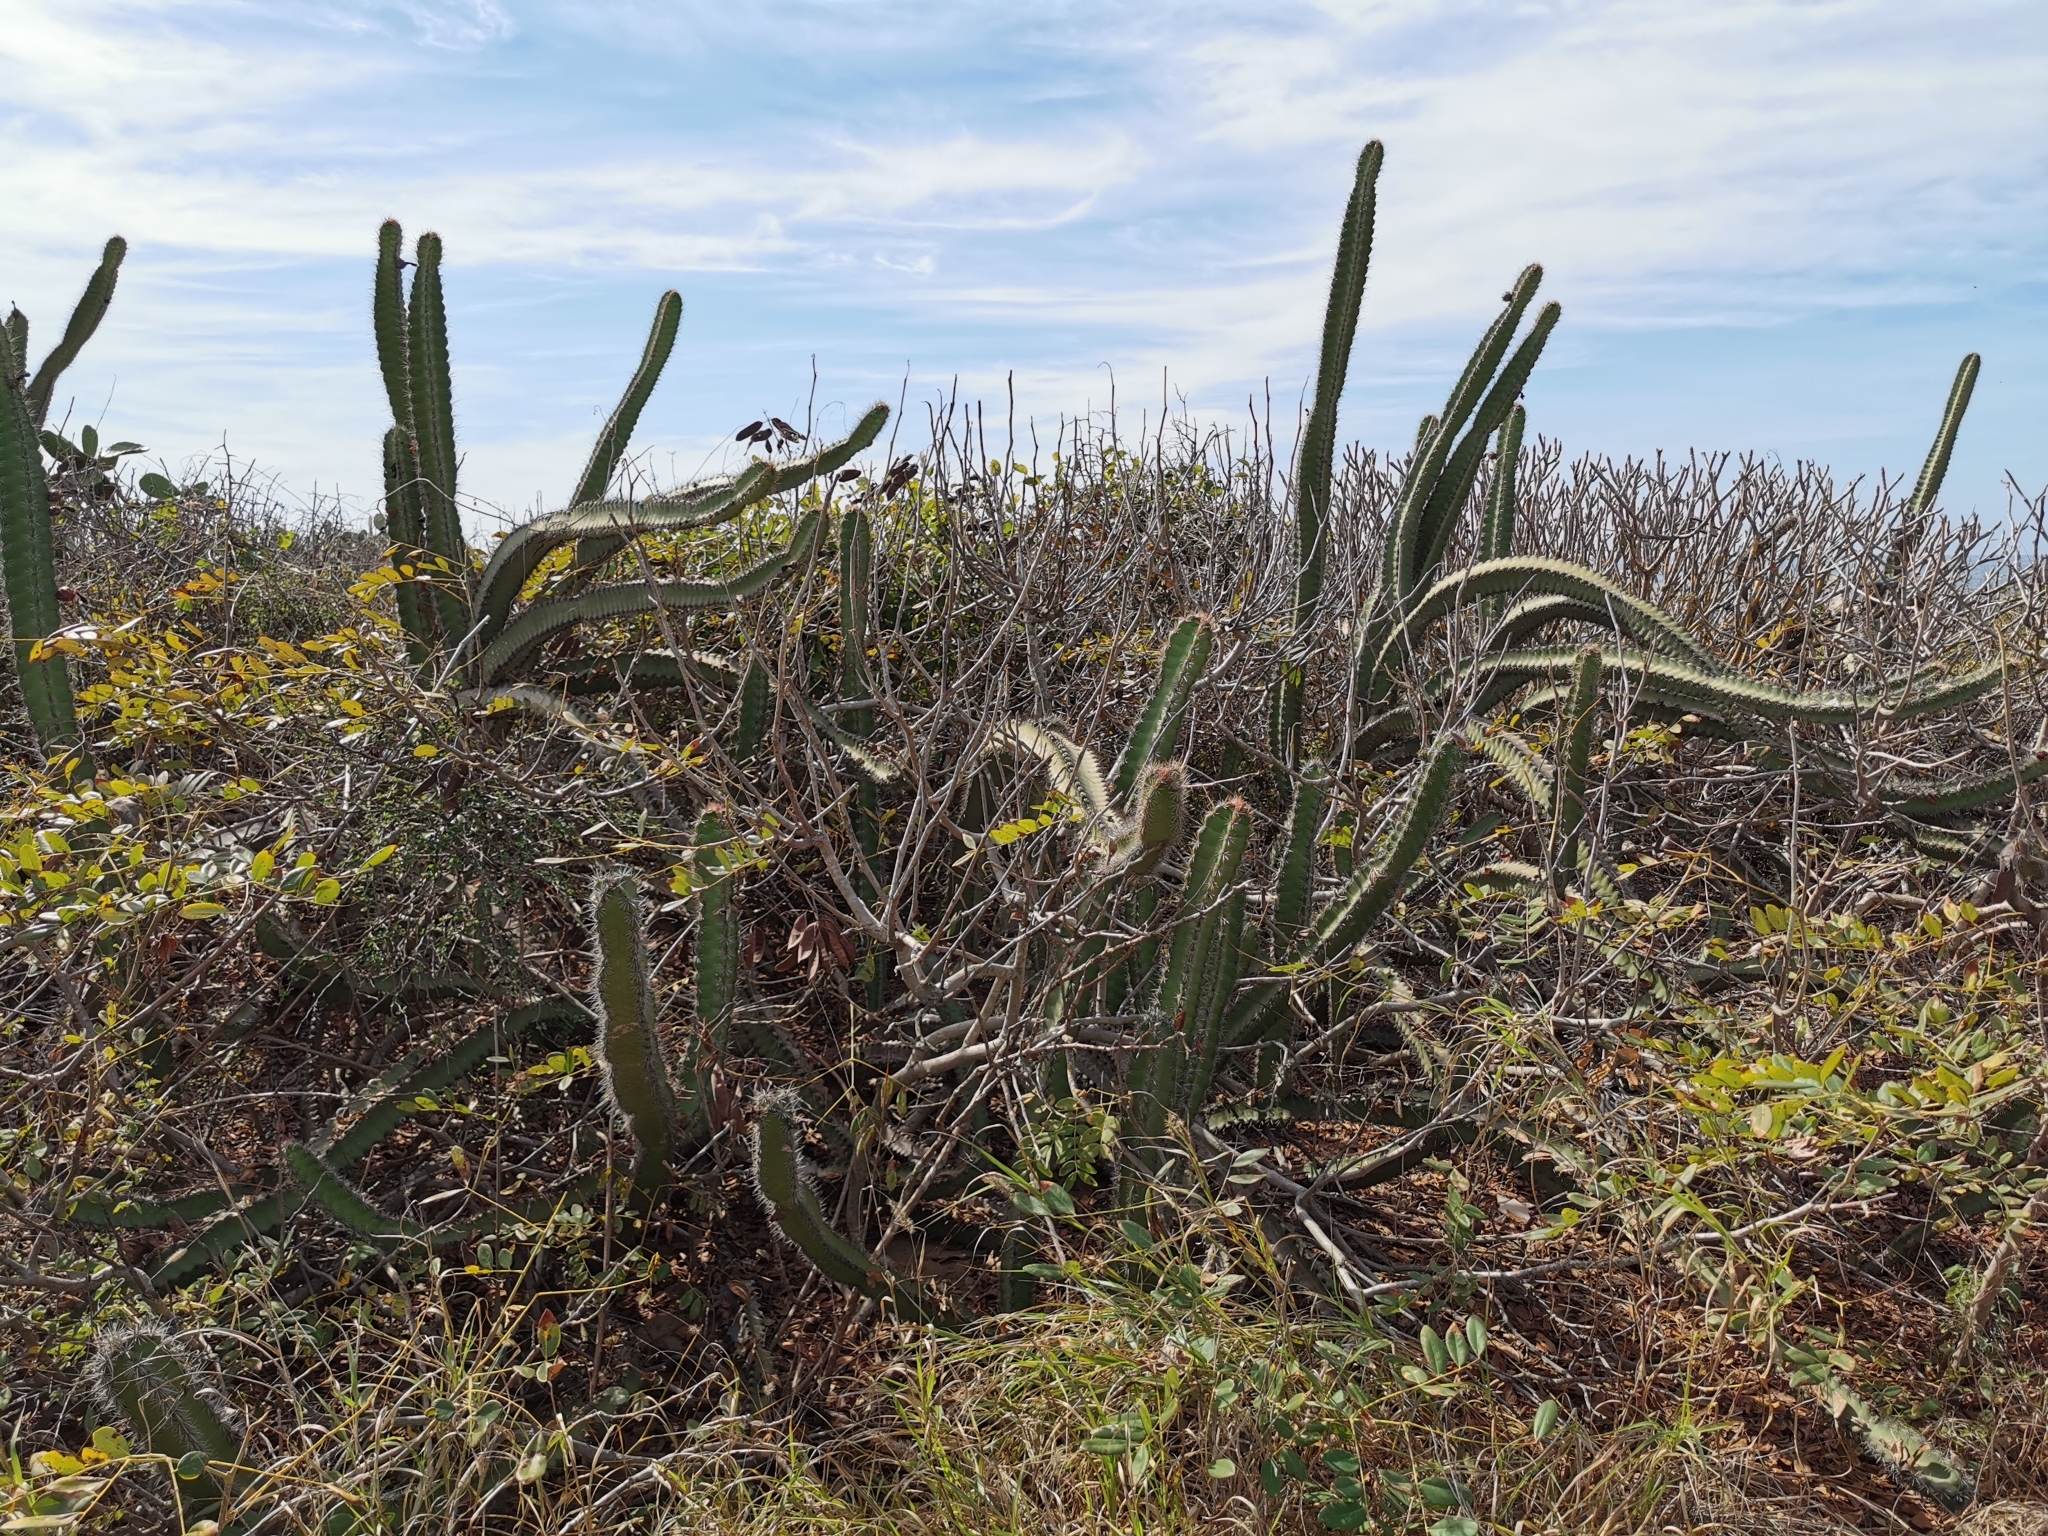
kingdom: Plantae
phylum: Tracheophyta
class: Magnoliopsida
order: Caryophyllales
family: Cactaceae
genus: Stenocereus
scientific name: Stenocereus standleyi
